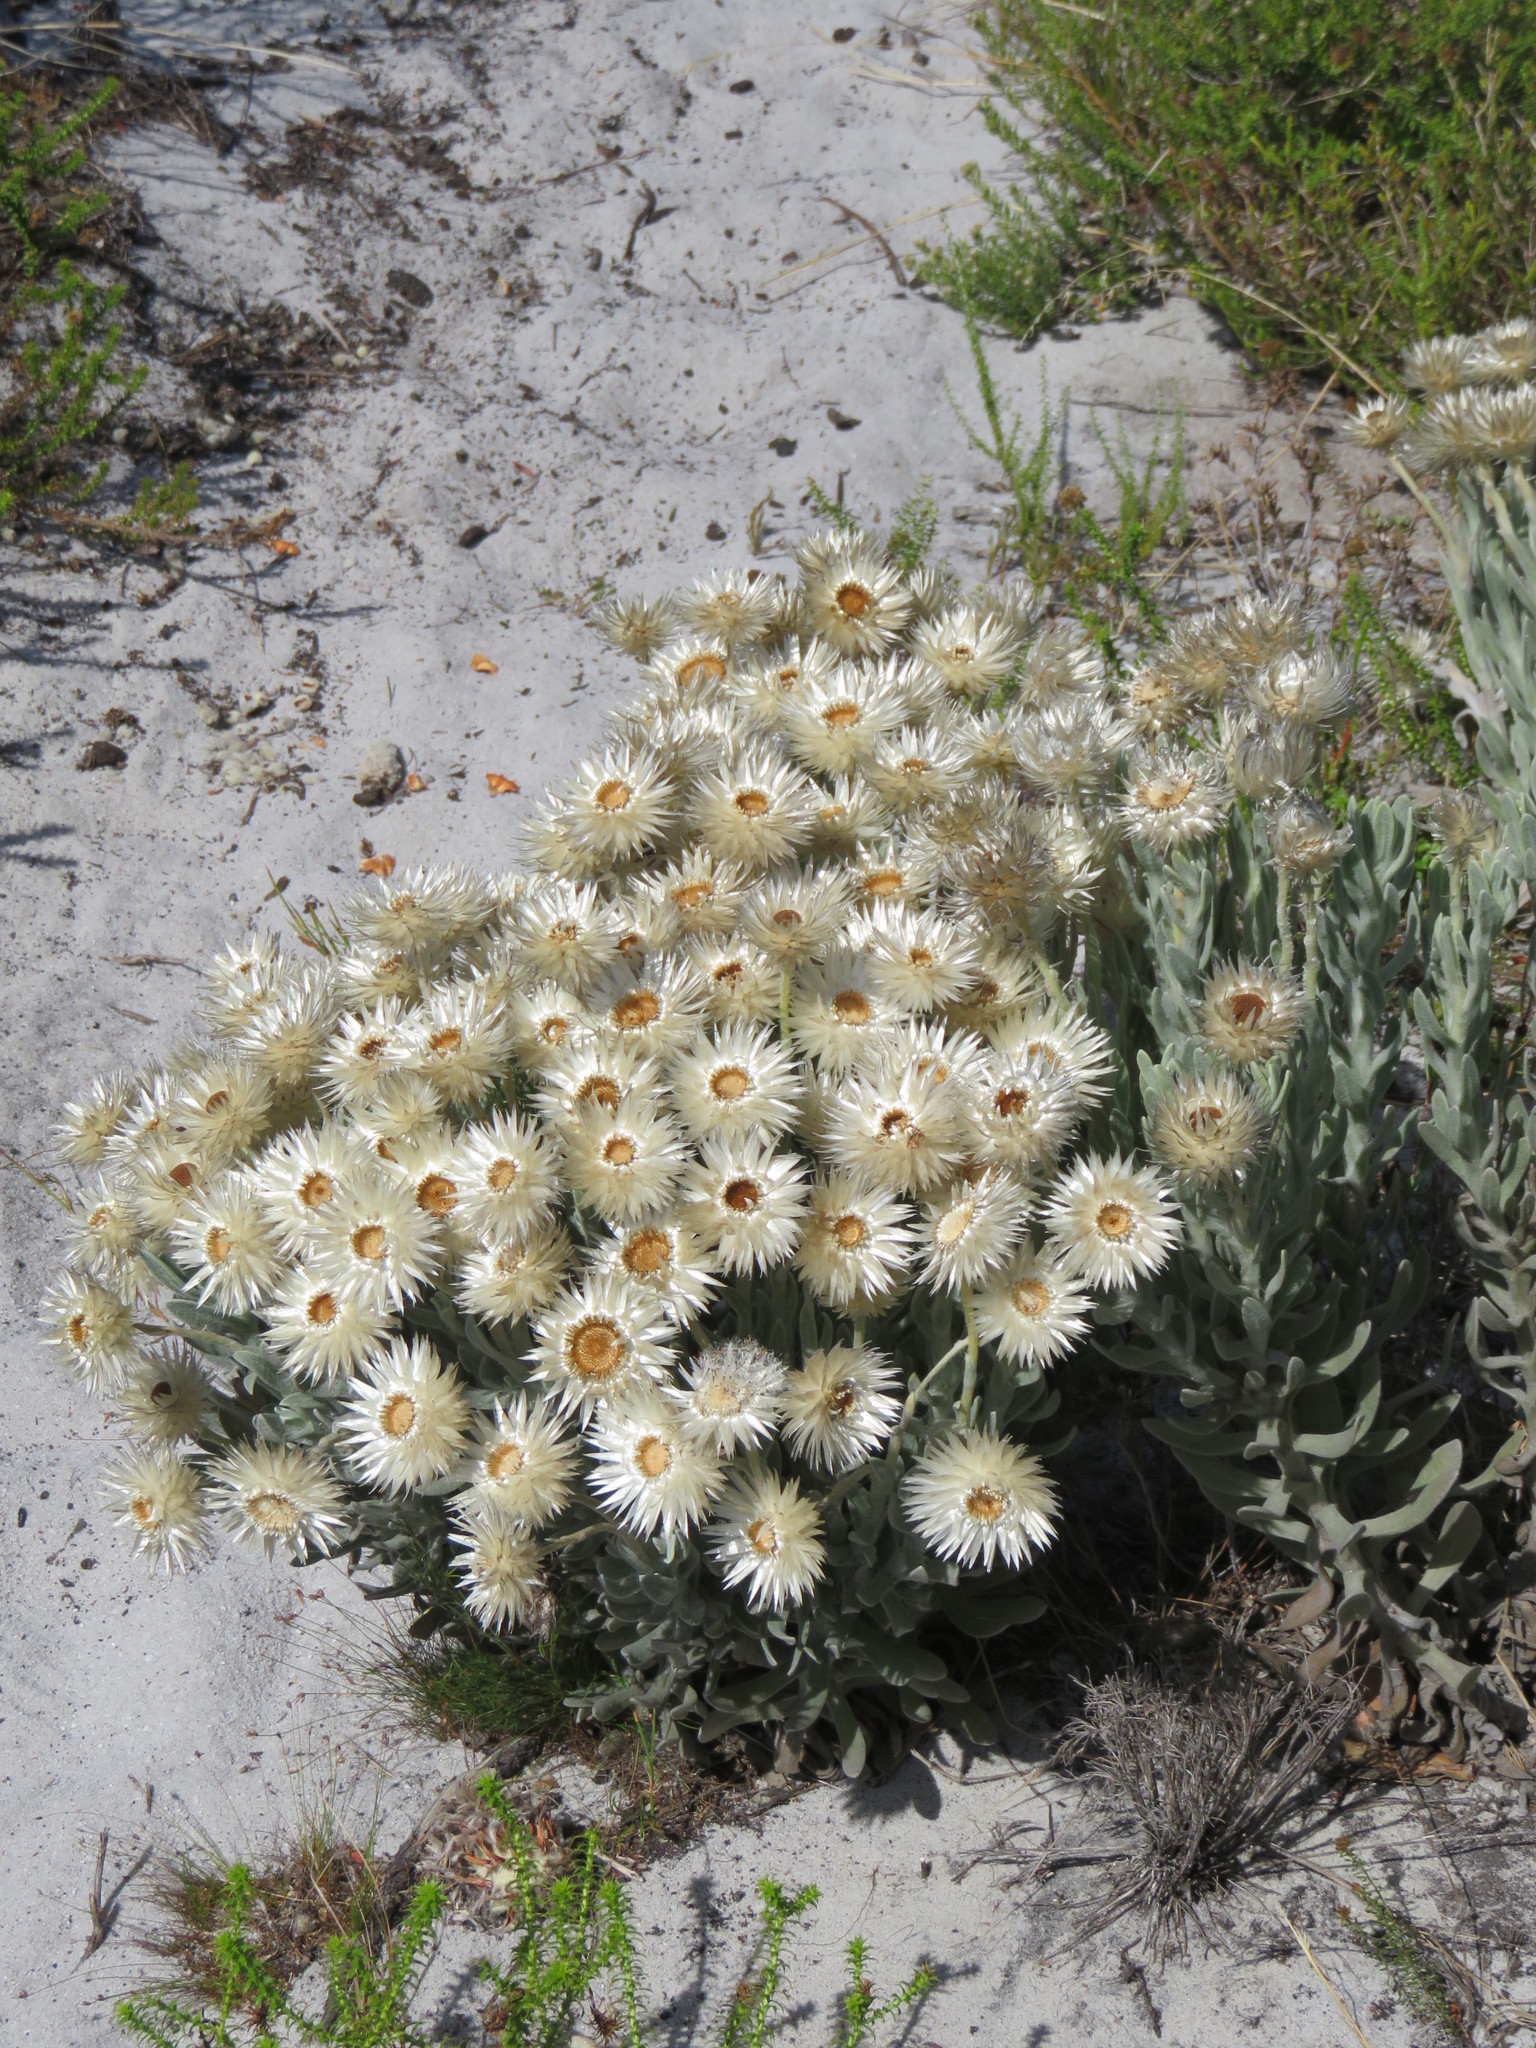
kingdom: Plantae
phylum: Tracheophyta
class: Magnoliopsida
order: Asterales
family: Asteraceae
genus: Syncarpha
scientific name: Syncarpha vestita
